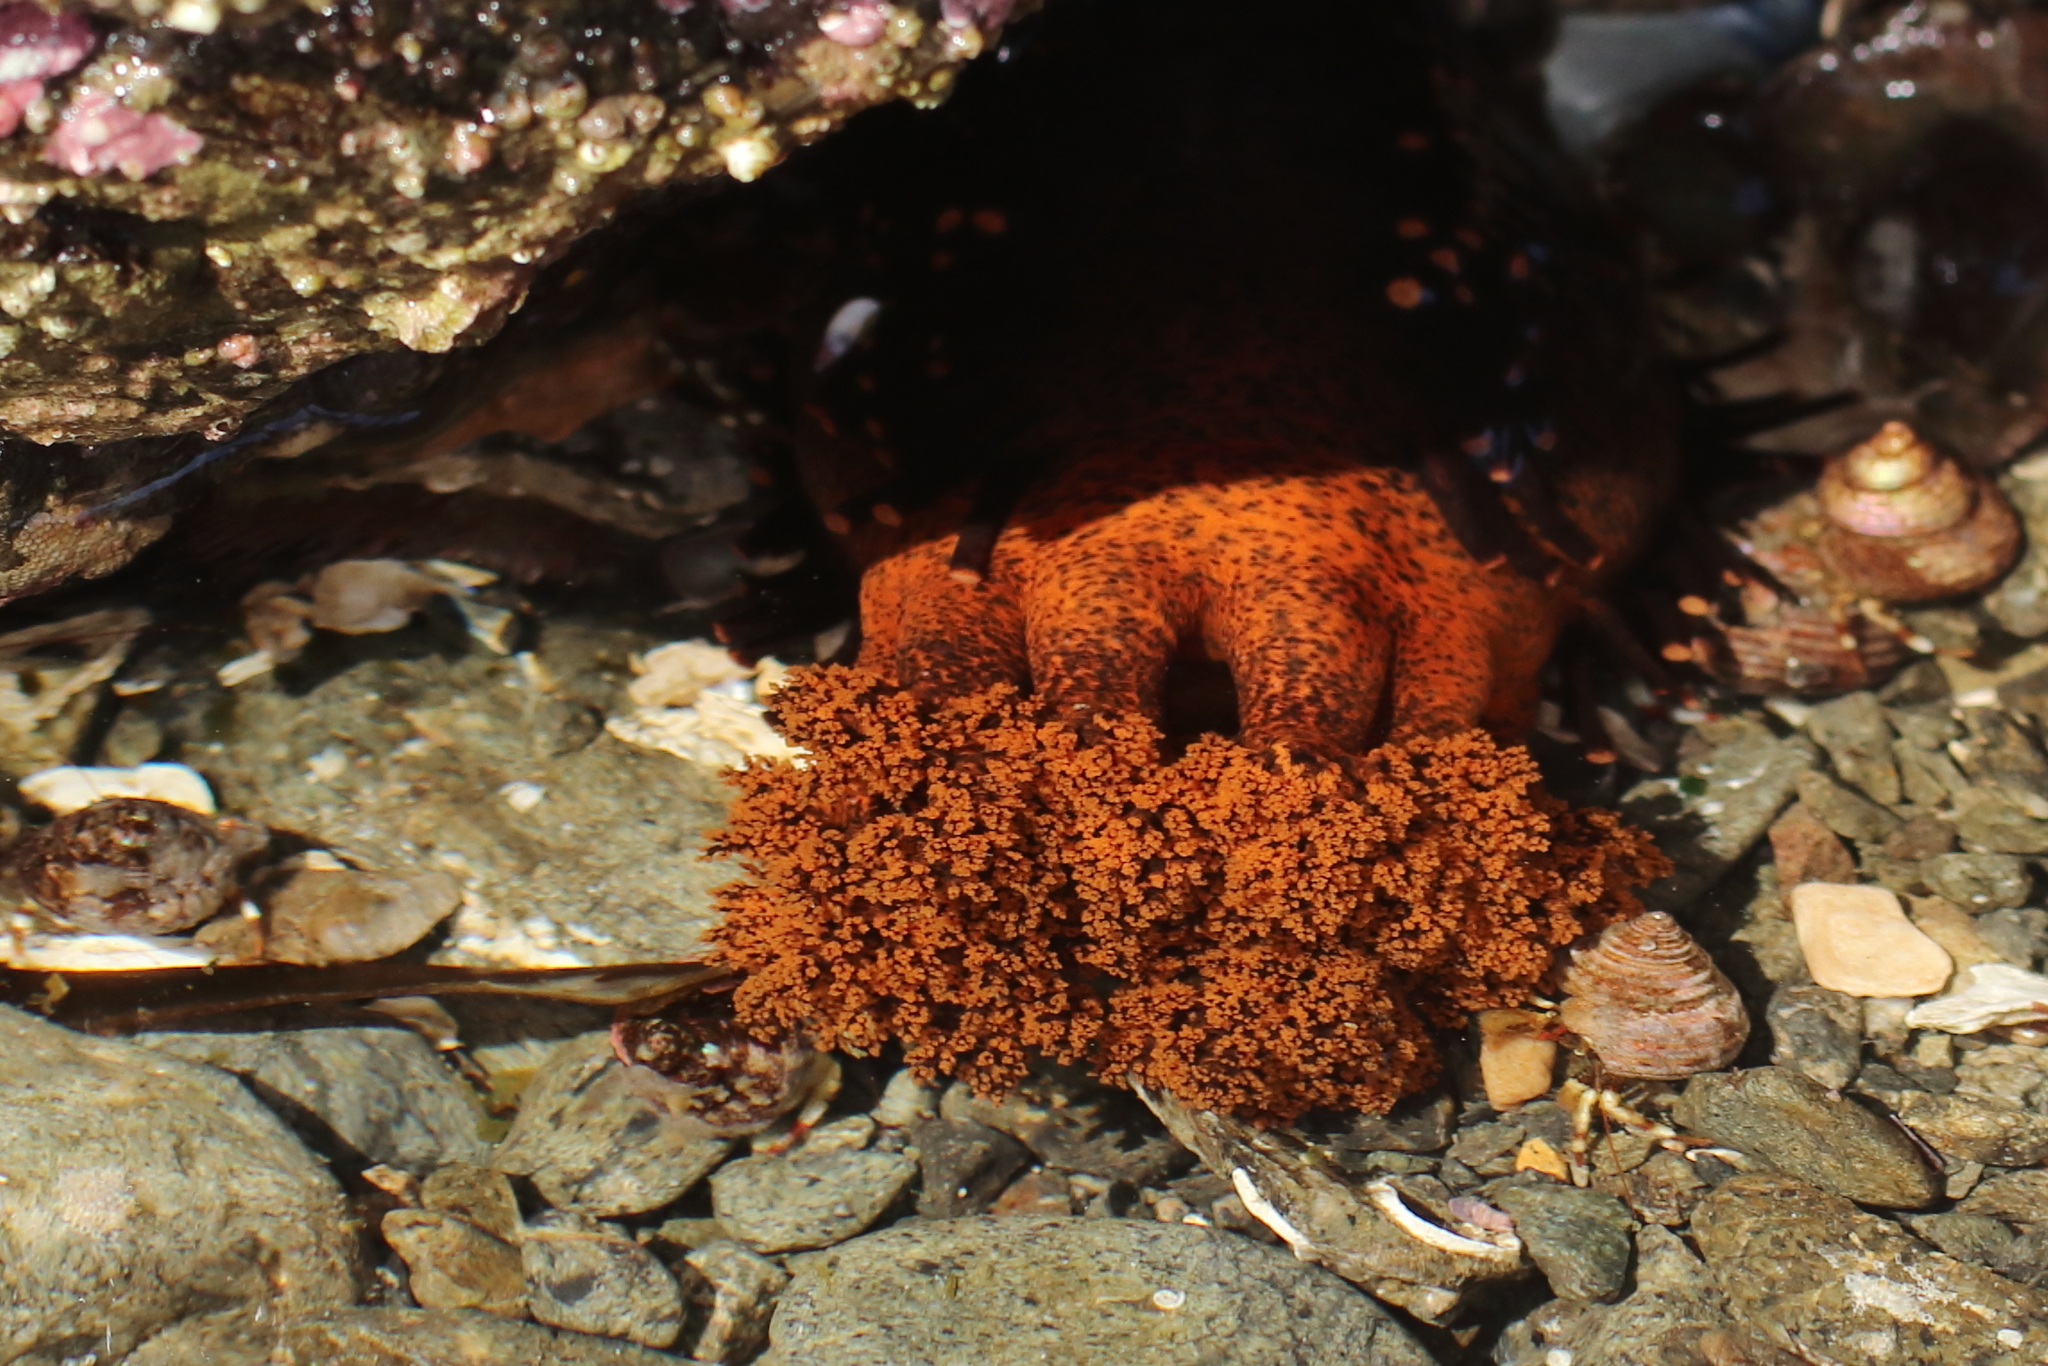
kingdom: Animalia
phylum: Echinodermata
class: Holothuroidea
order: Dendrochirotida
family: Cucumariidae
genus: Cucumaria
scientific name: Cucumaria miniata
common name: Orange sea cucumber
